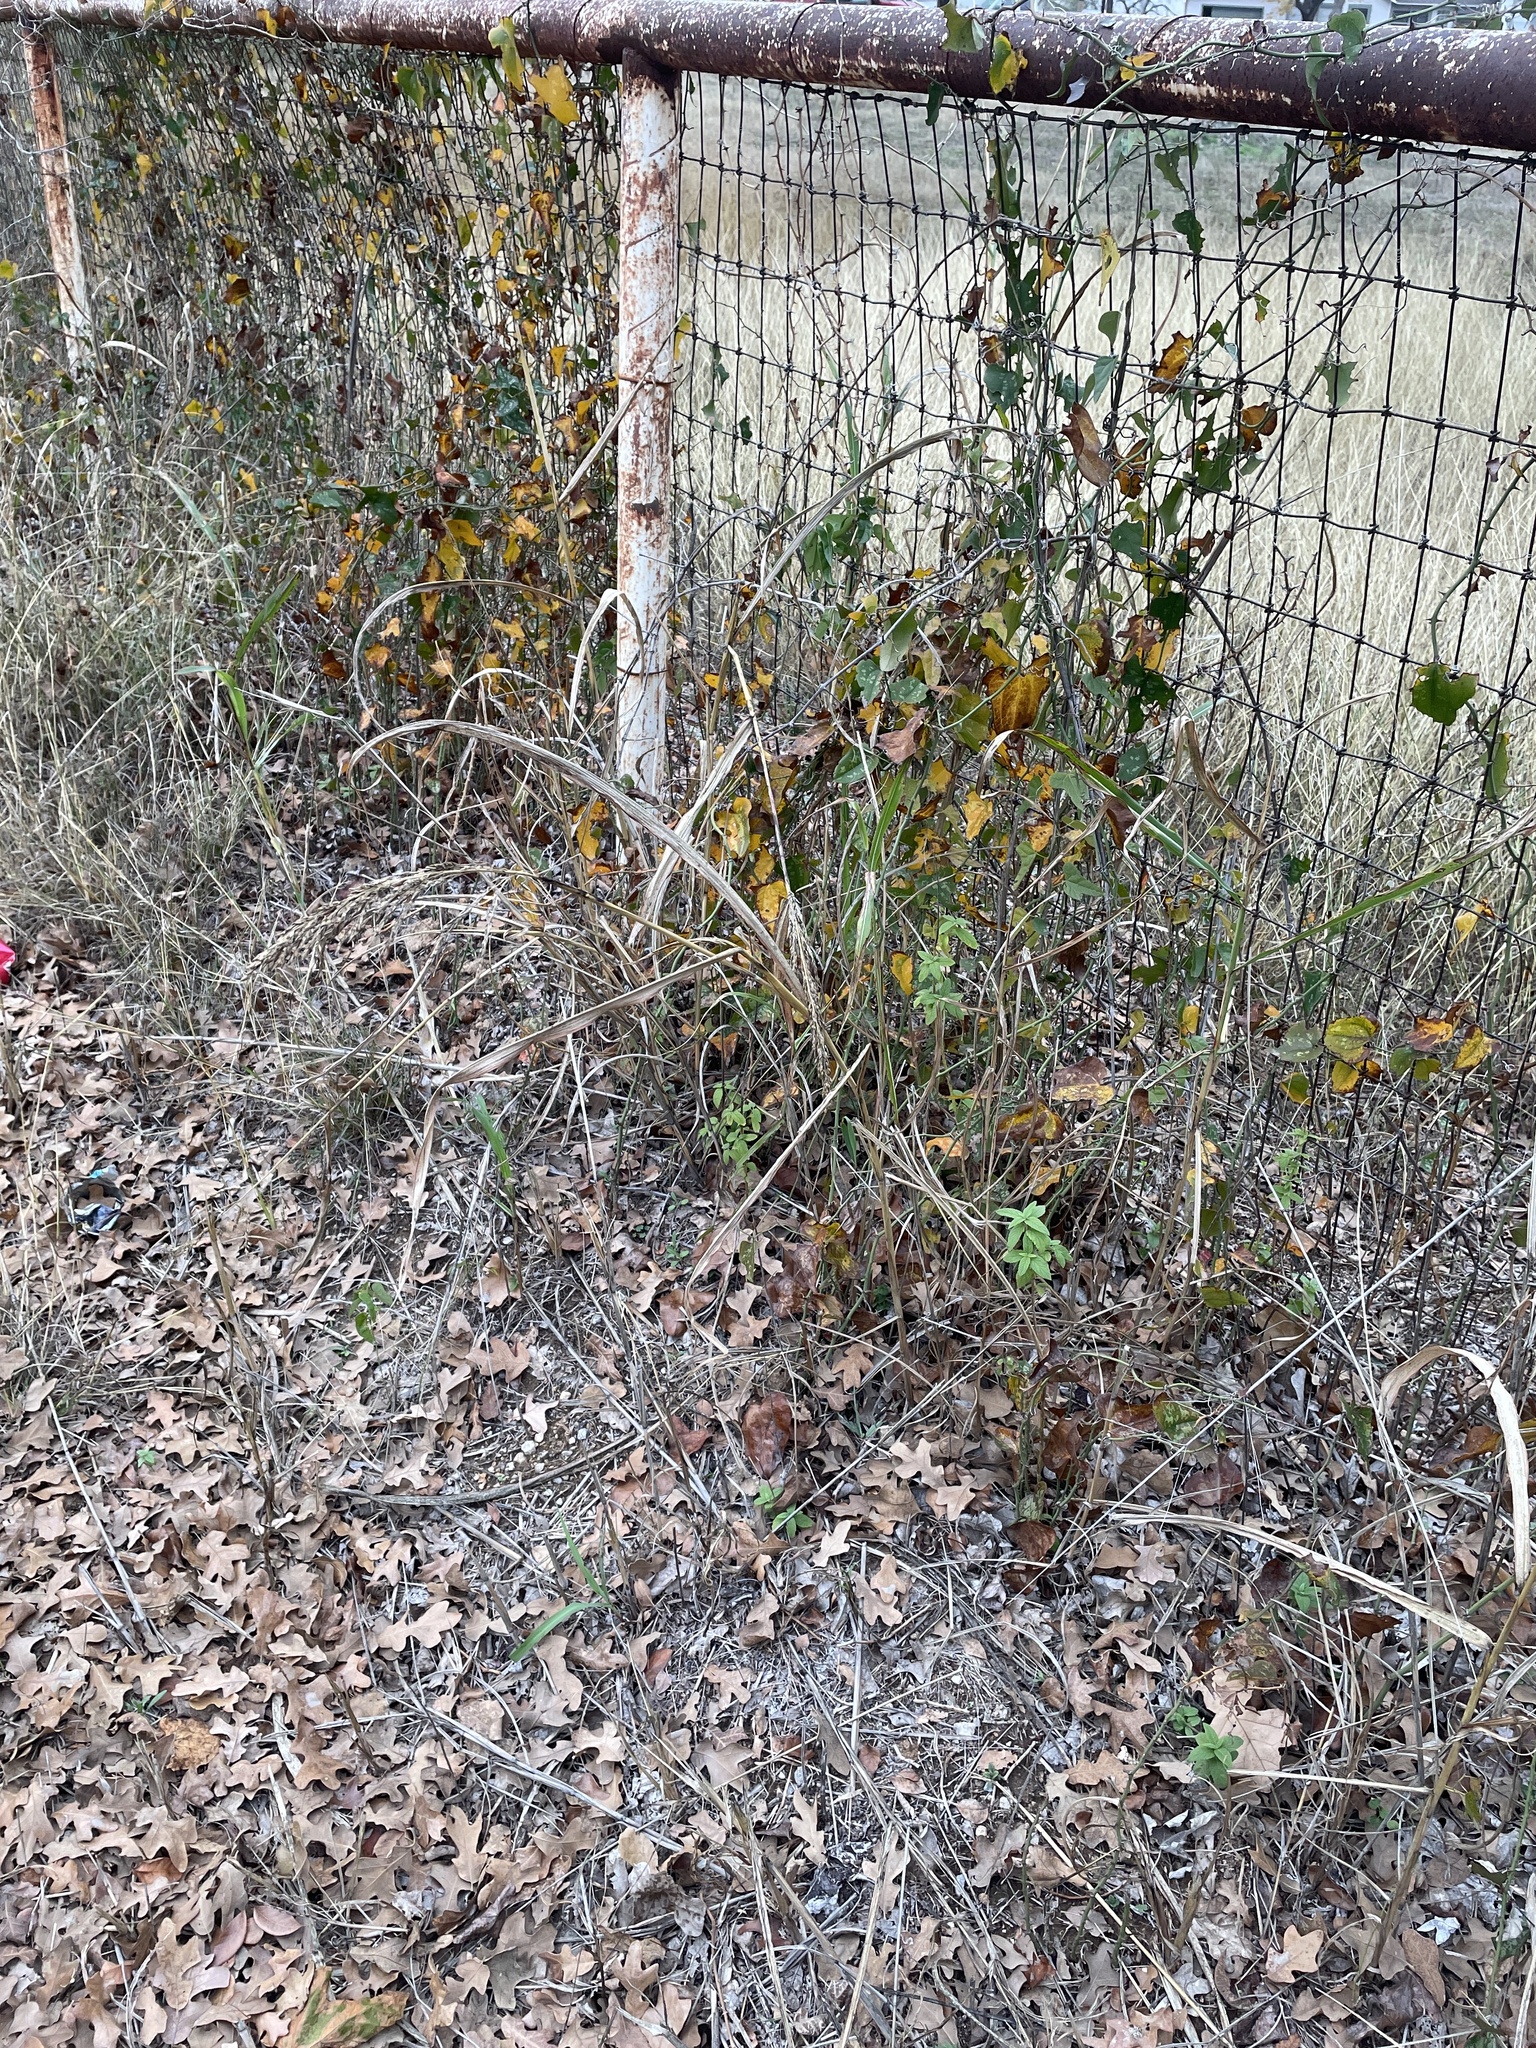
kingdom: Plantae
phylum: Tracheophyta
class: Liliopsida
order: Poales
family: Poaceae
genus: Sorghum
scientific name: Sorghum halepense
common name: Johnson-grass
